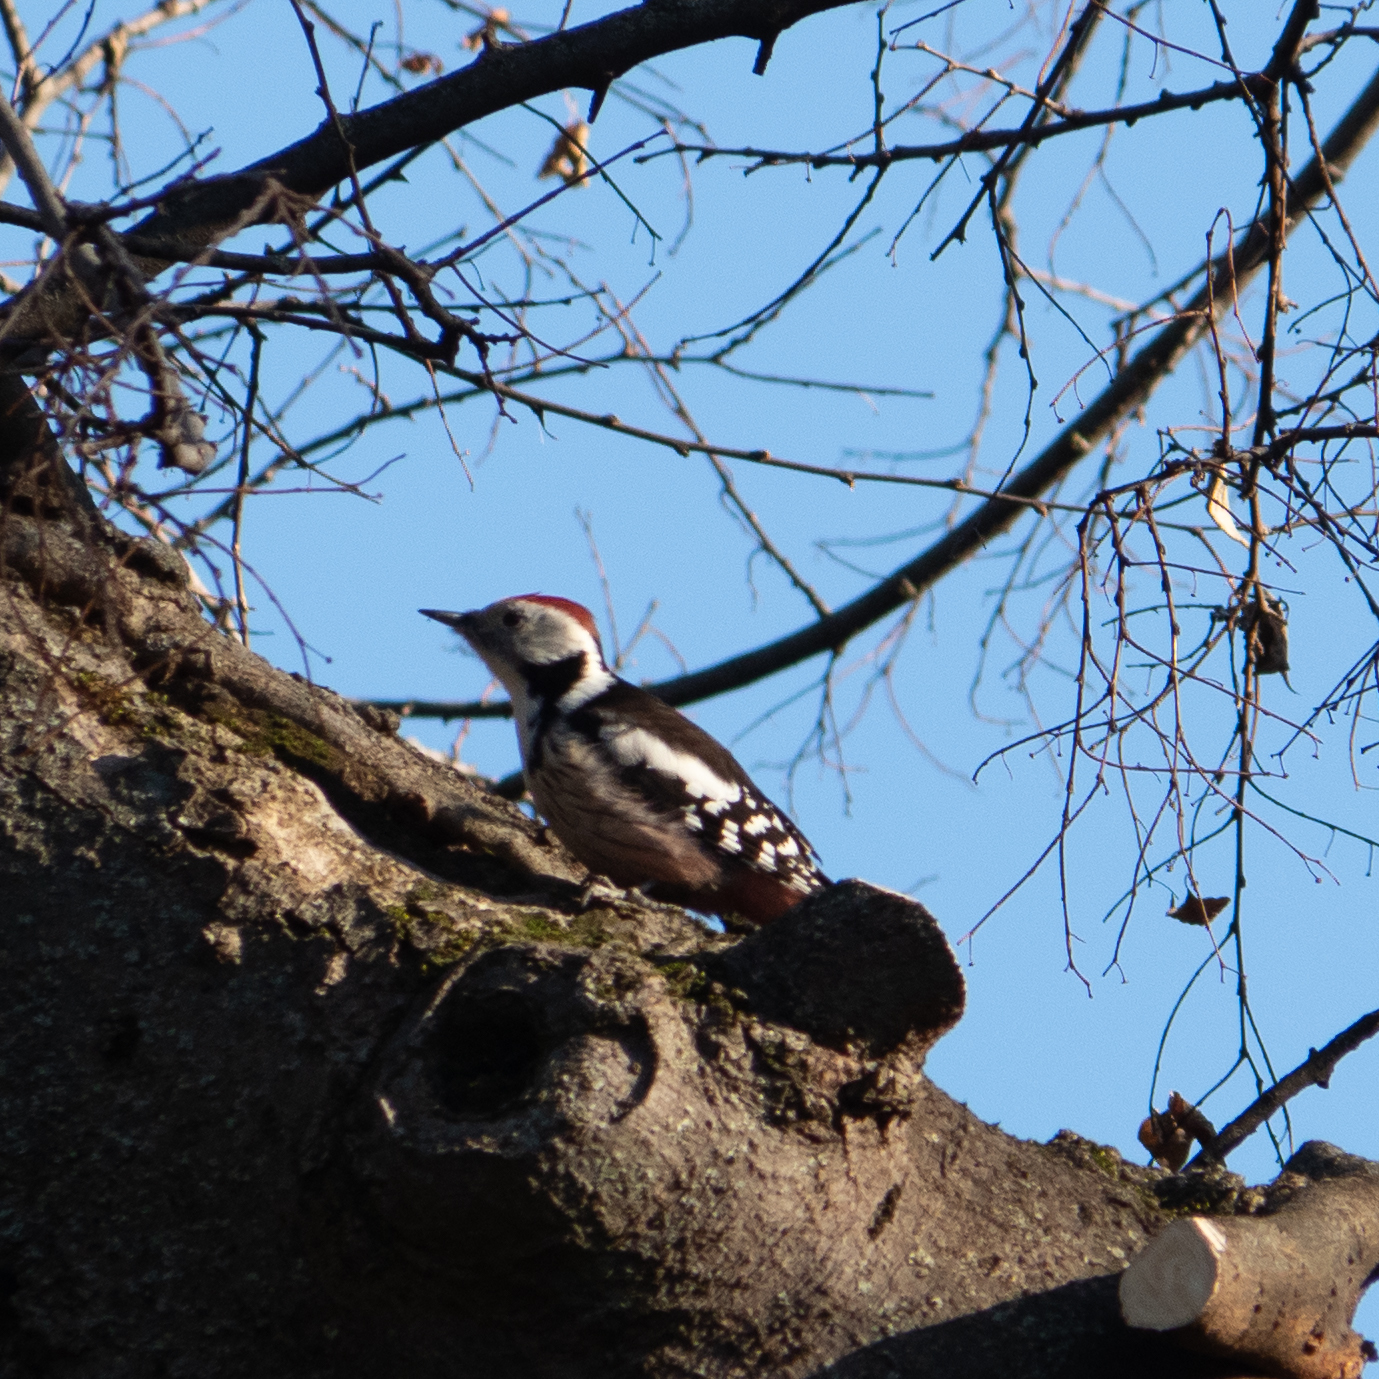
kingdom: Animalia
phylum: Chordata
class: Aves
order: Piciformes
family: Picidae
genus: Dendrocoptes
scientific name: Dendrocoptes medius
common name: Middle spotted woodpecker
